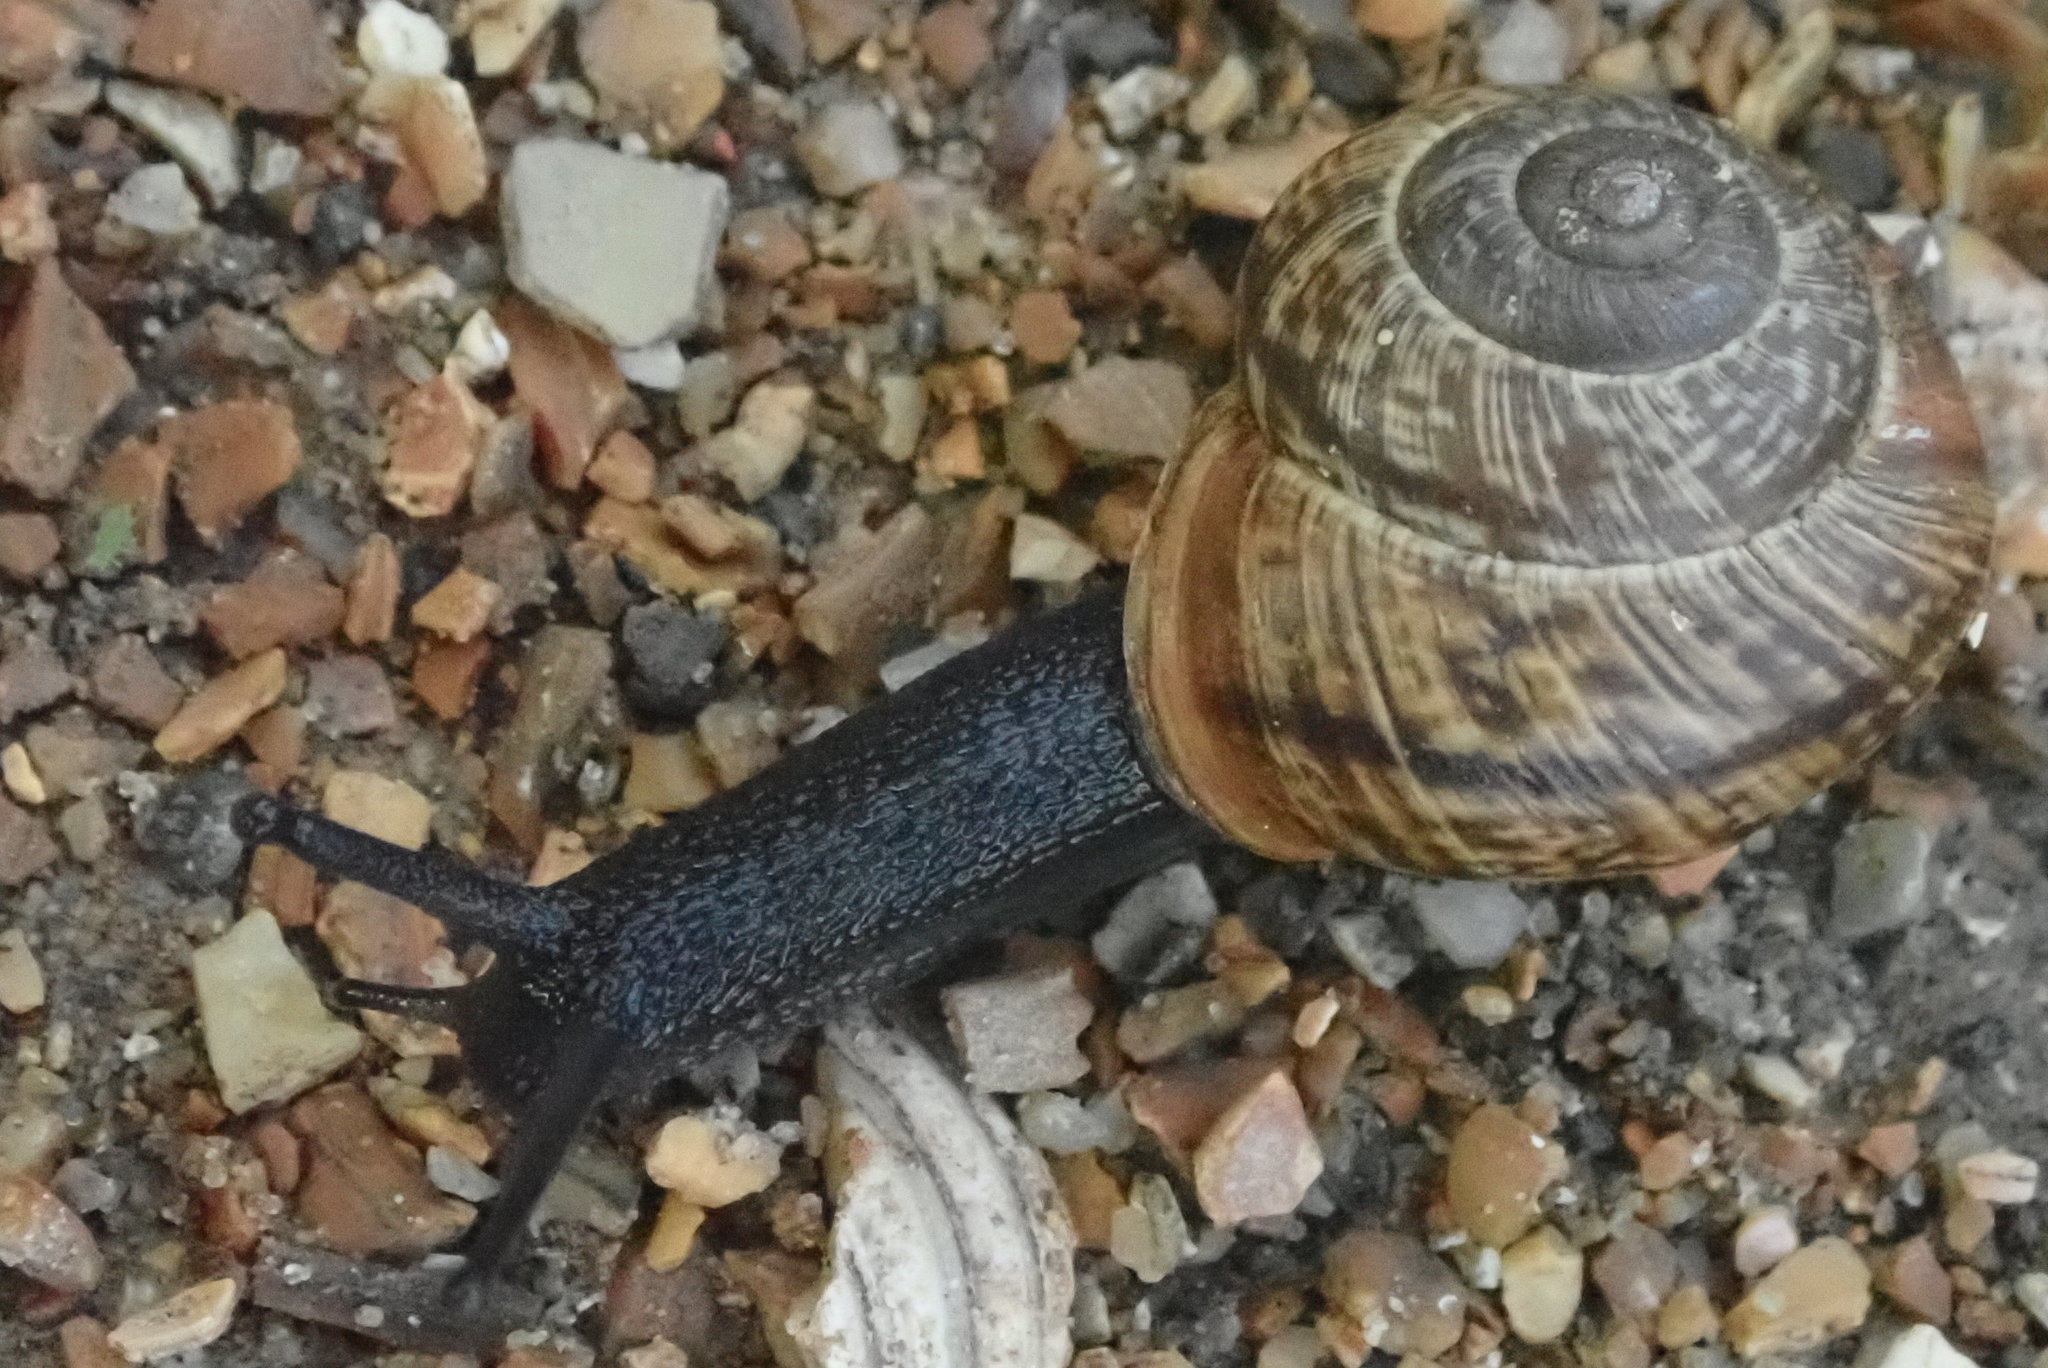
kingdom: Animalia
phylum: Mollusca
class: Gastropoda
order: Stylommatophora
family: Helicidae
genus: Arianta
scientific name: Arianta arbustorum
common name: Copse snail
